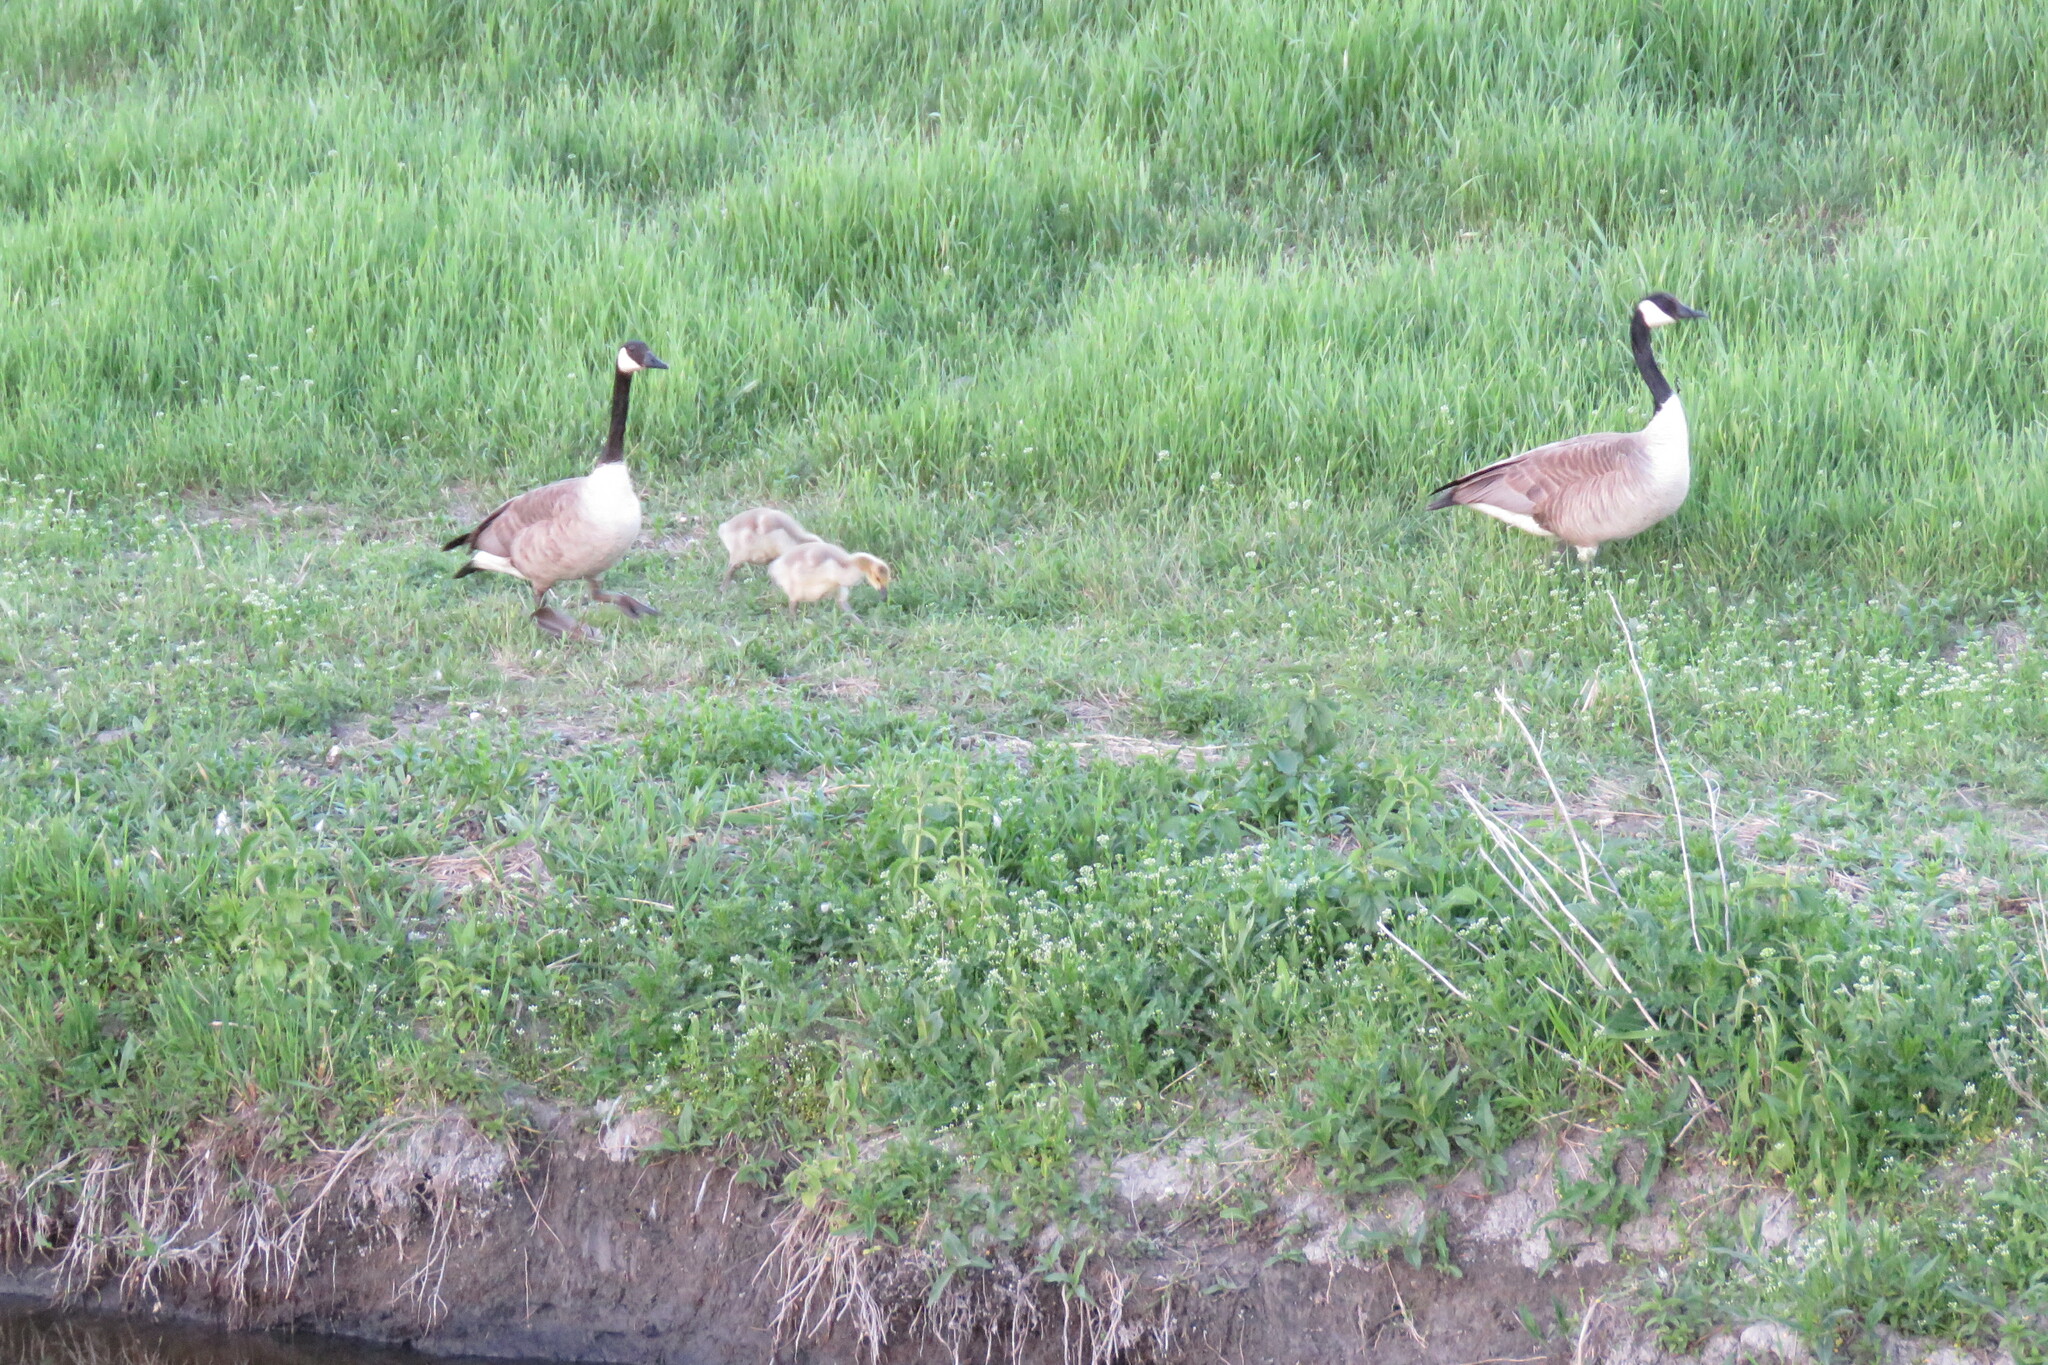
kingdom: Animalia
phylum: Chordata
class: Aves
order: Anseriformes
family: Anatidae
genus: Branta
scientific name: Branta canadensis
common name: Canada goose
